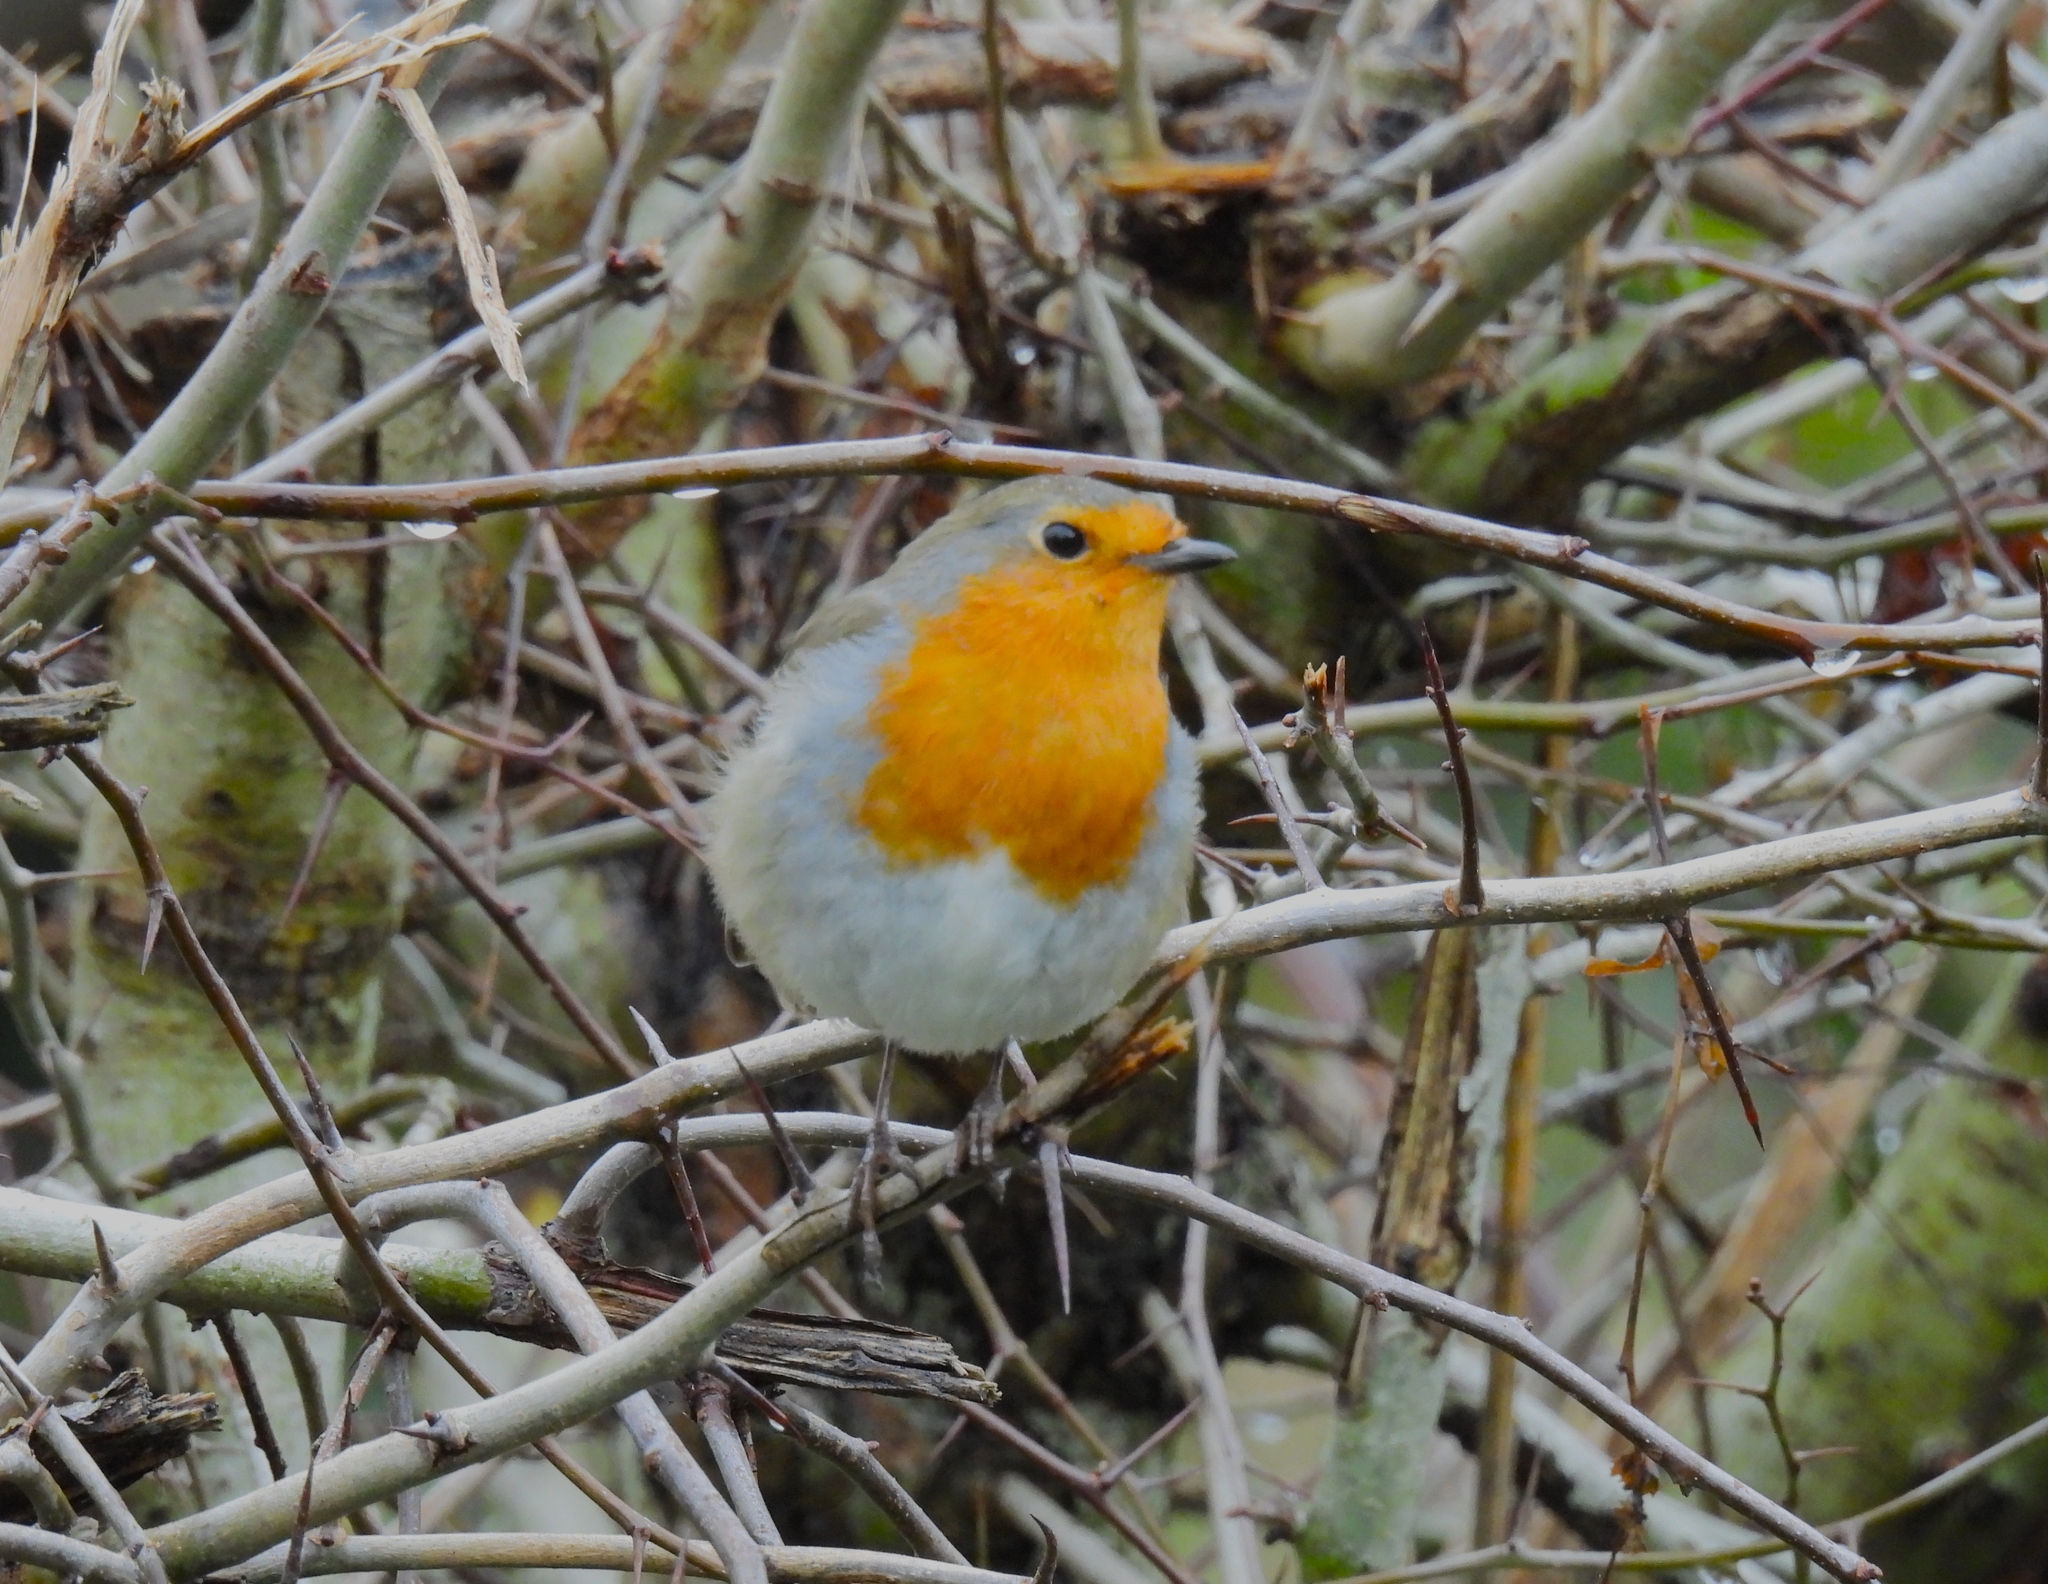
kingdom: Animalia
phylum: Chordata
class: Aves
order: Passeriformes
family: Muscicapidae
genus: Erithacus
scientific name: Erithacus rubecula
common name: European robin
